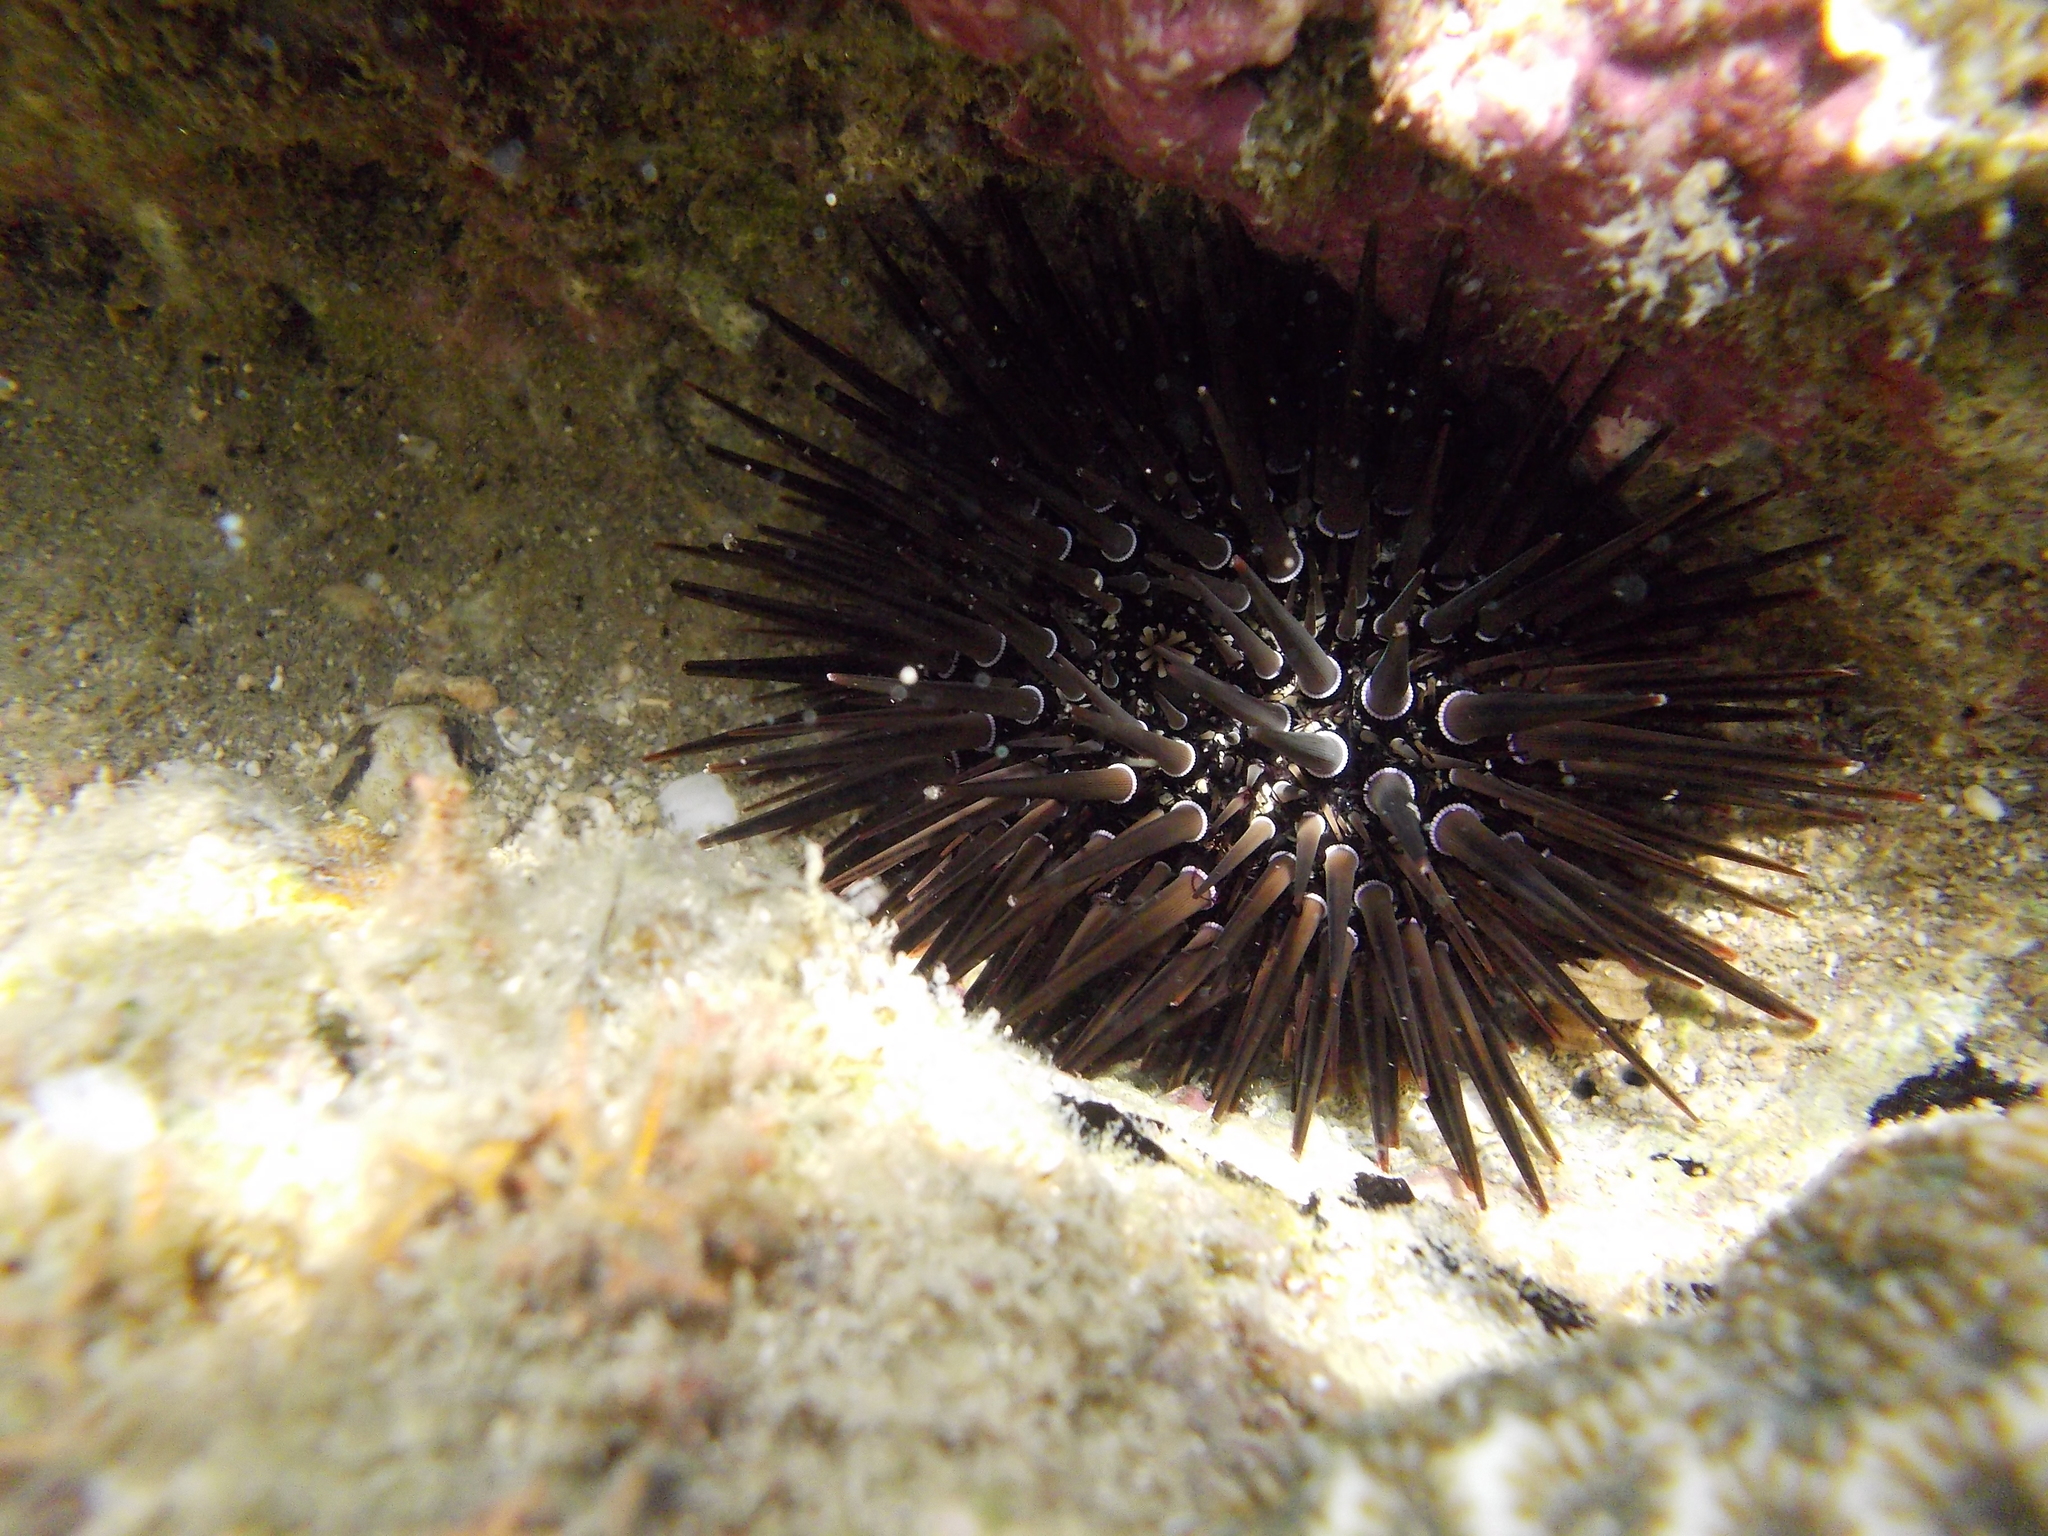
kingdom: Animalia
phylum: Echinodermata
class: Echinoidea
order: Camarodonta
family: Echinometridae
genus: Echinometra
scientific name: Echinometra mathaei
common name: Rock-boring urchin
